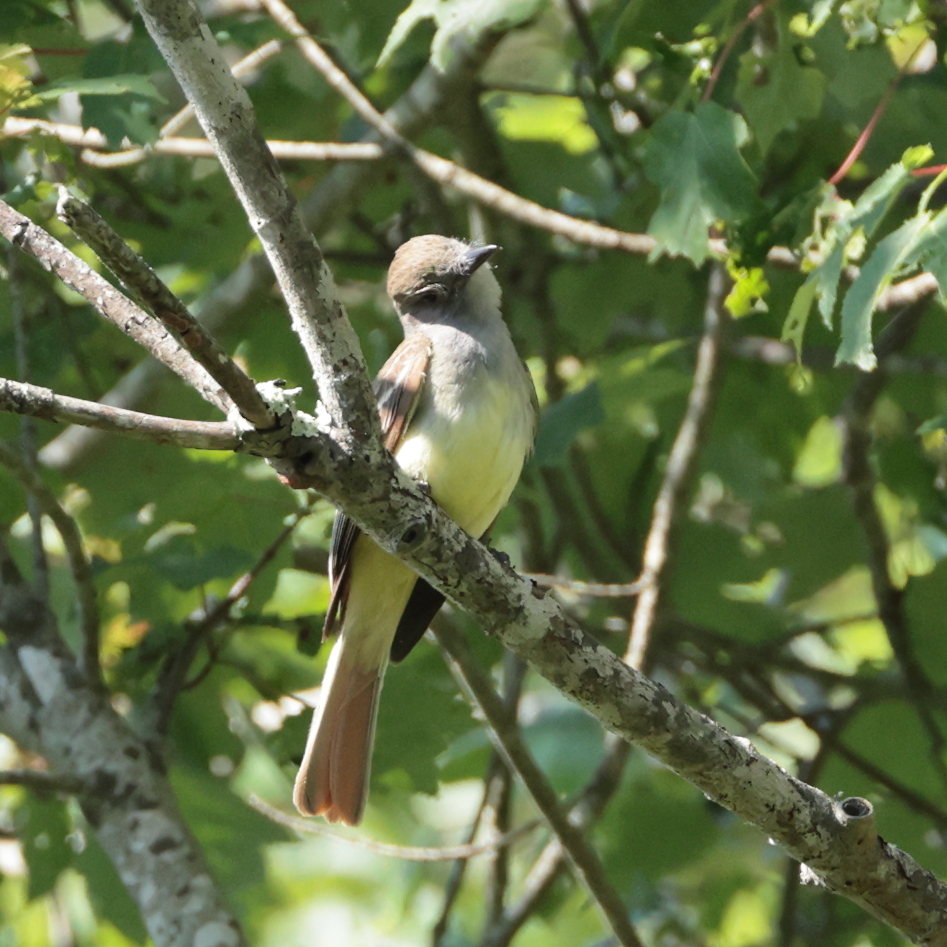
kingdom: Animalia
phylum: Chordata
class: Aves
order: Passeriformes
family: Tyrannidae
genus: Myiarchus
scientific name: Myiarchus crinitus
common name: Great crested flycatcher
